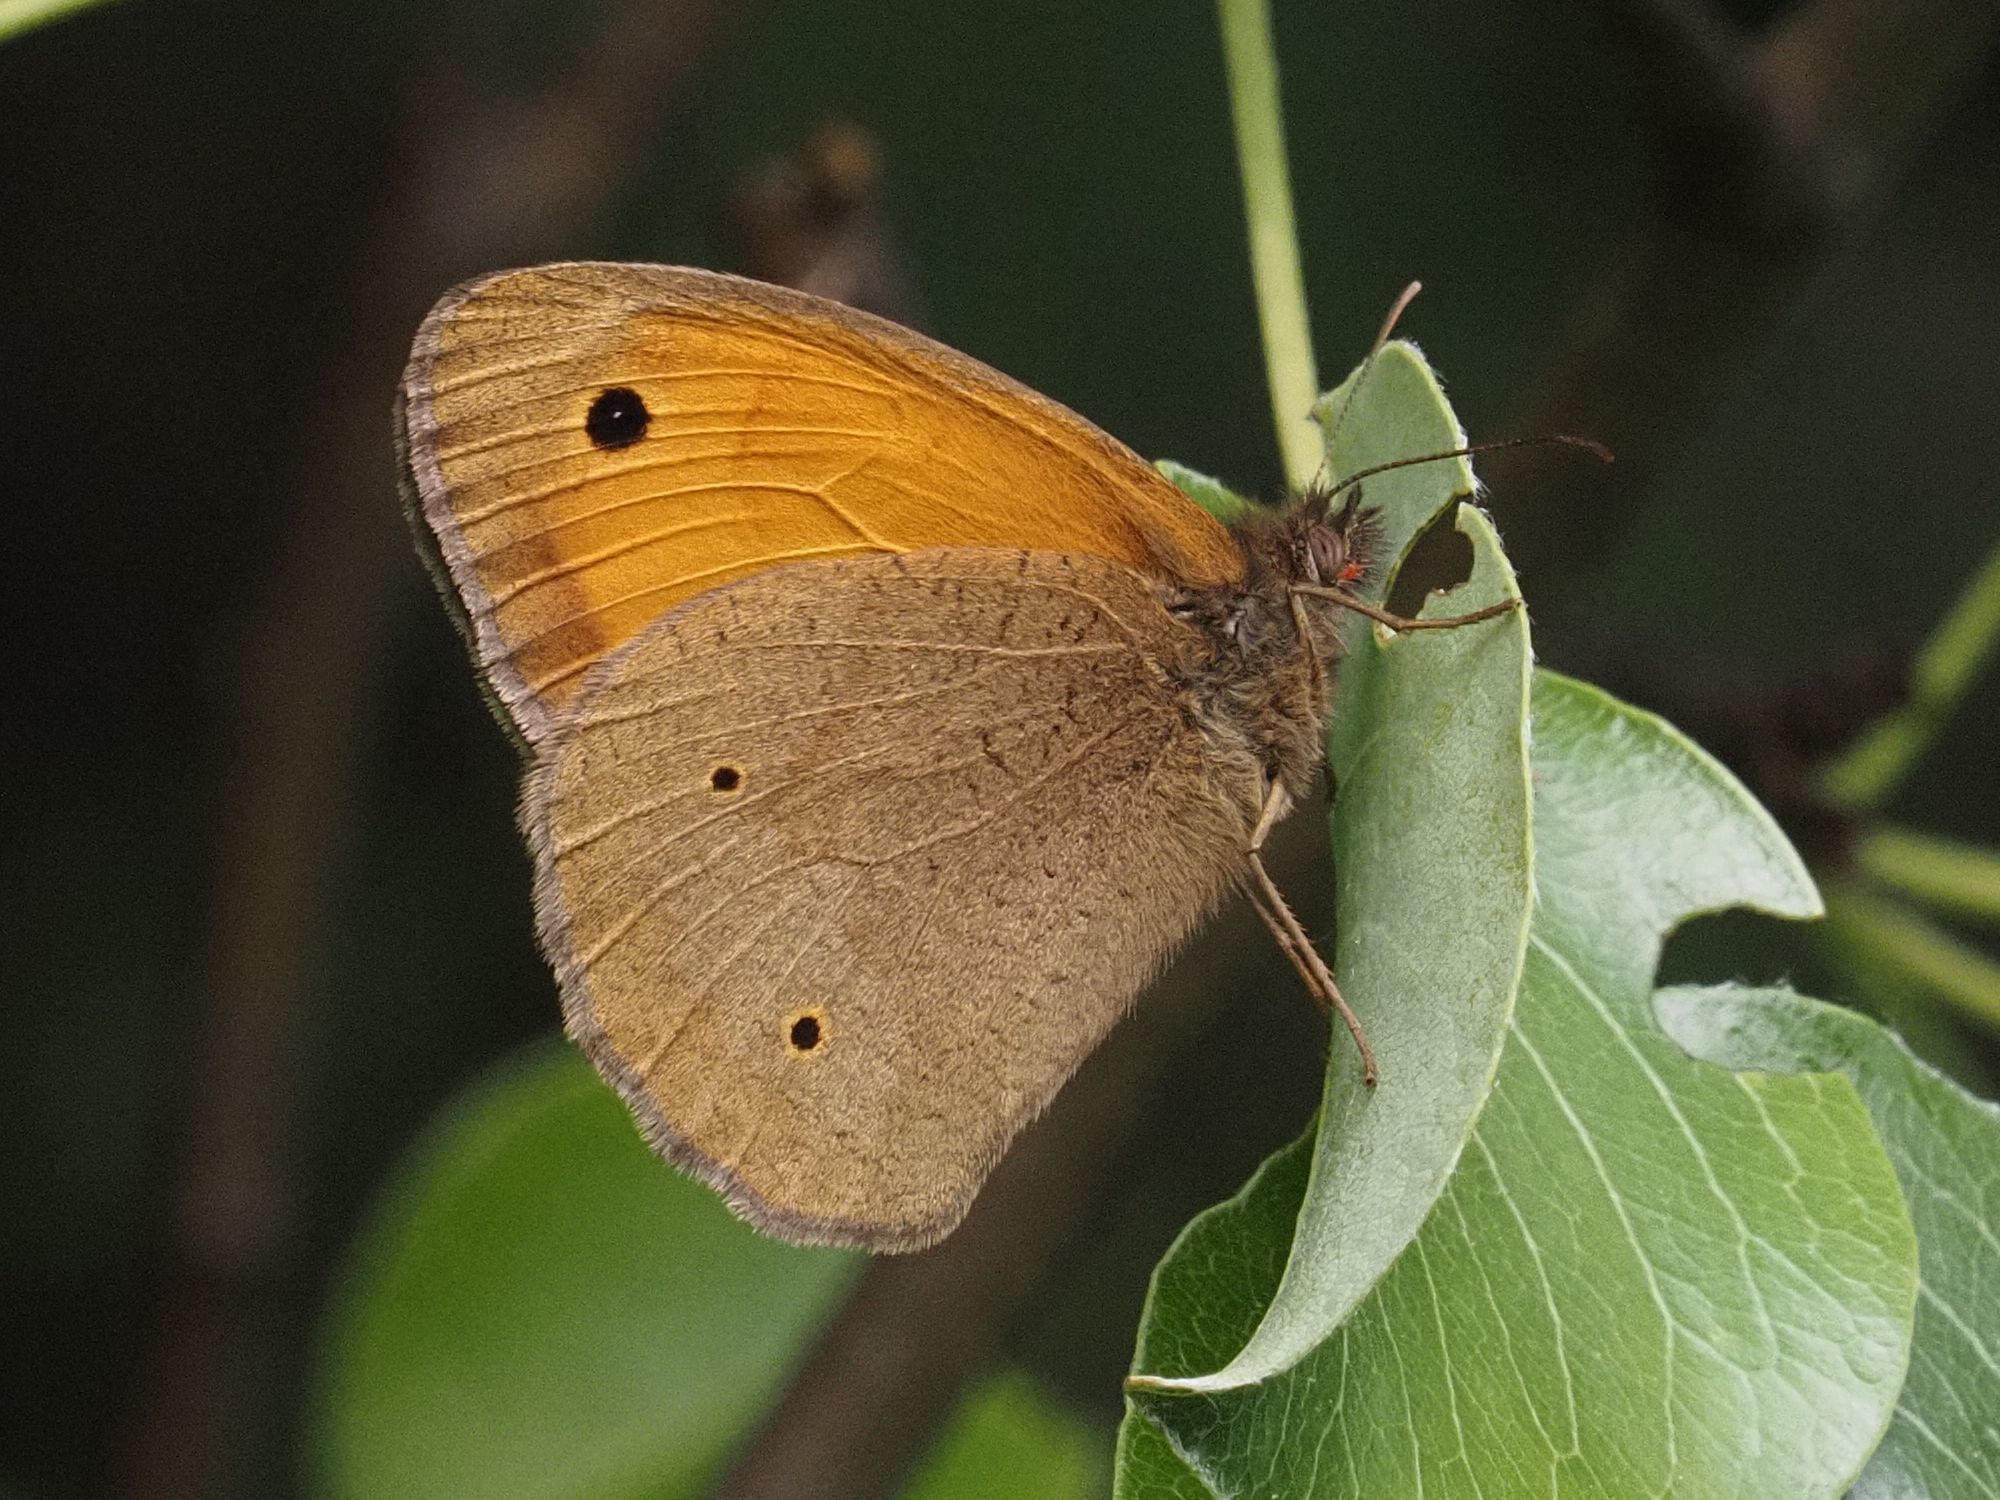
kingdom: Animalia
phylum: Arthropoda
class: Insecta
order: Lepidoptera
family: Nymphalidae
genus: Maniola
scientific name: Maniola jurtina
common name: Meadow brown
